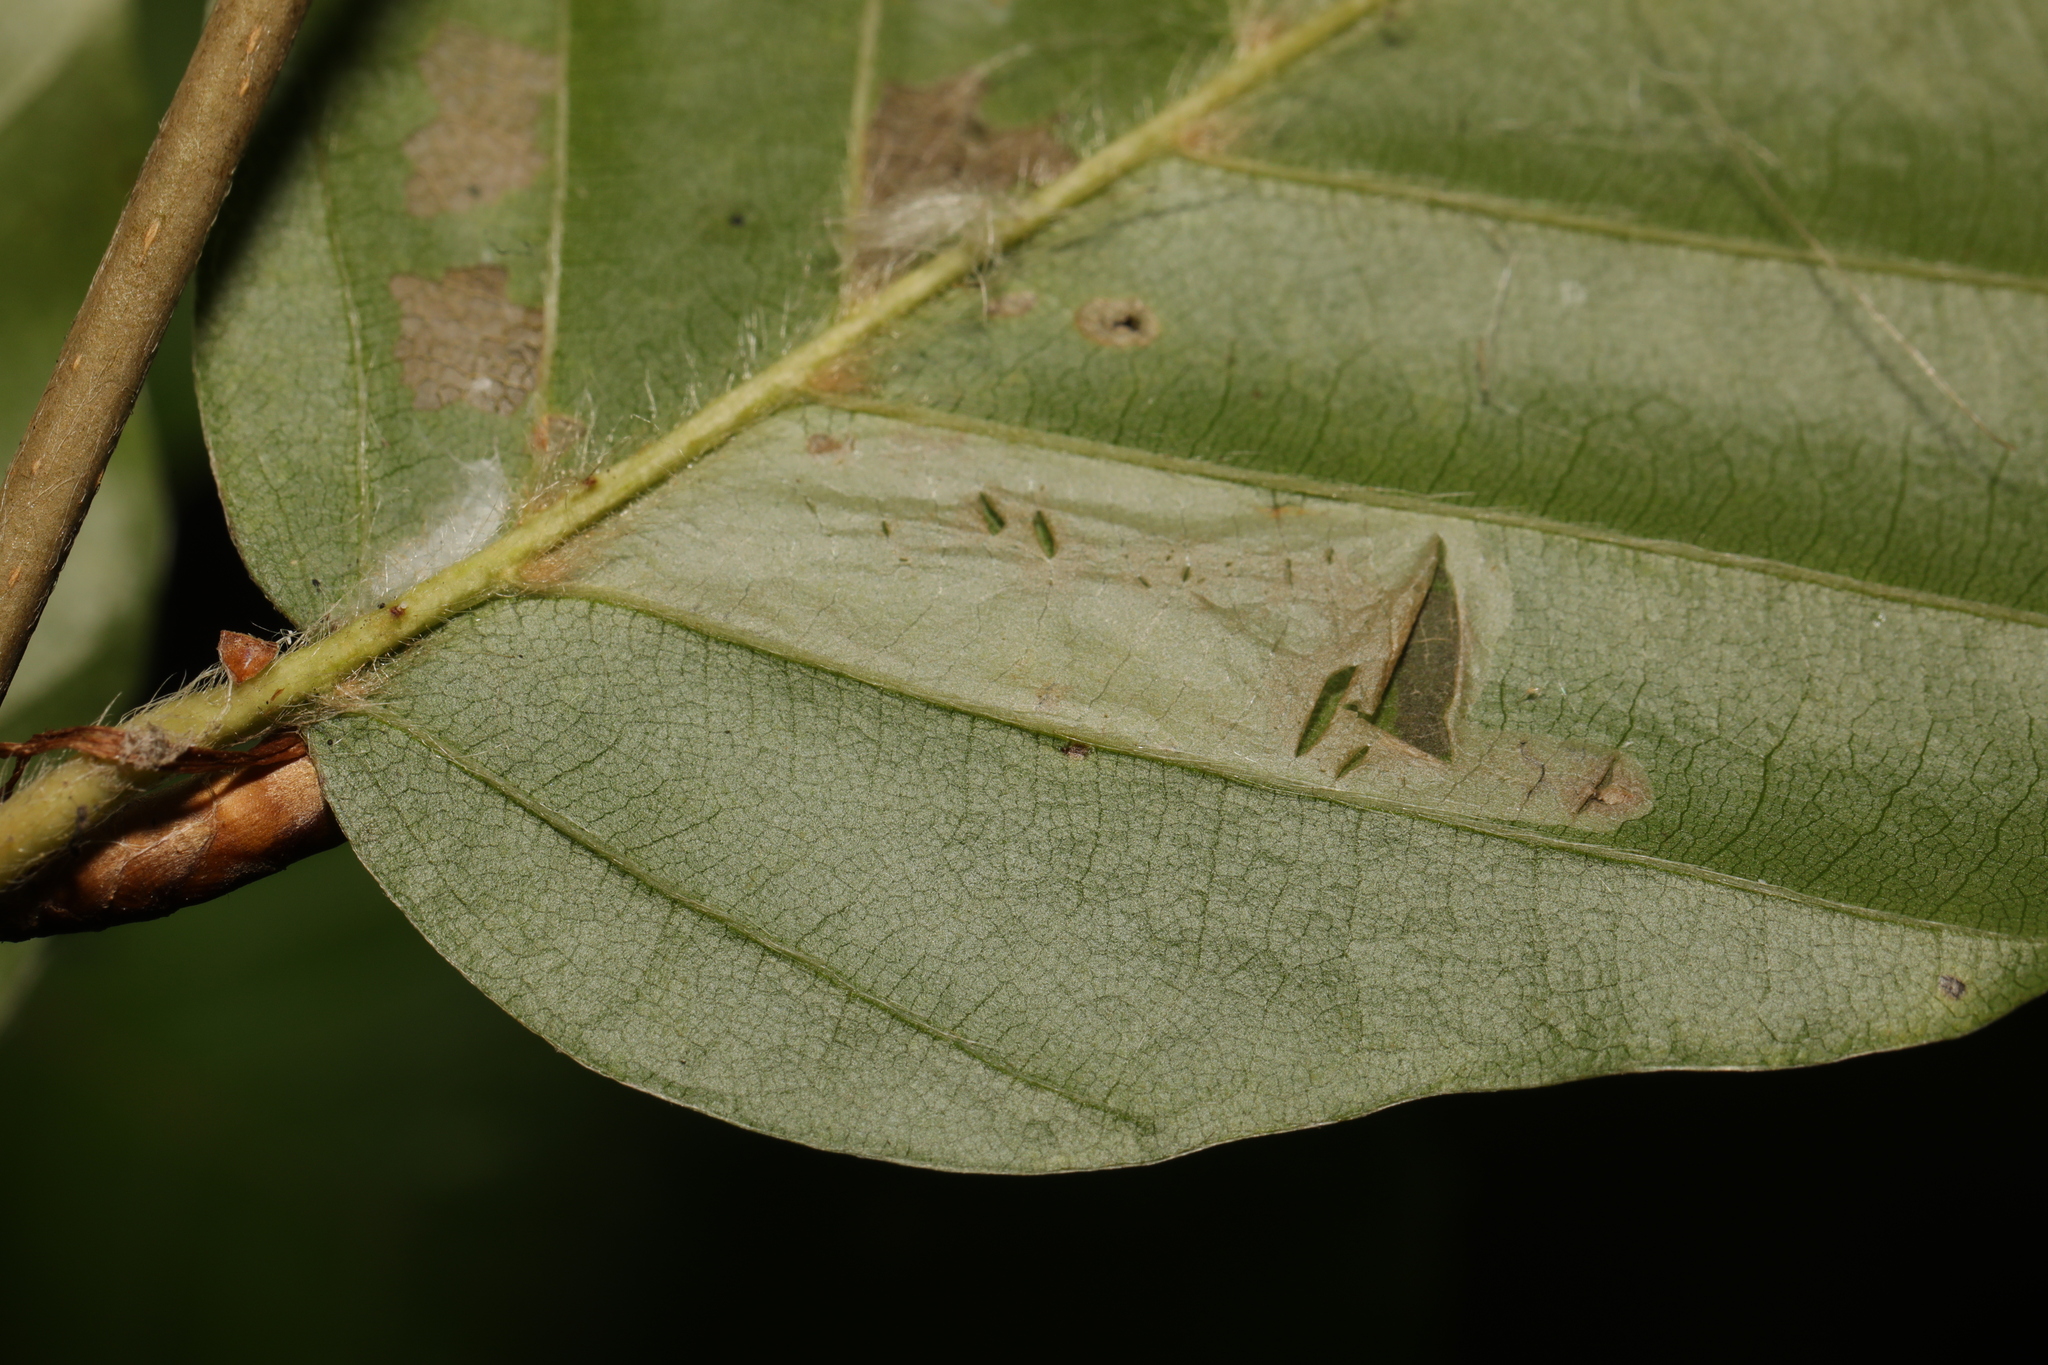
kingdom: Animalia
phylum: Arthropoda
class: Insecta
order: Lepidoptera
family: Gracillariidae
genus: Phyllonorycter
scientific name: Phyllonorycter maestingella
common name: Beech midget
